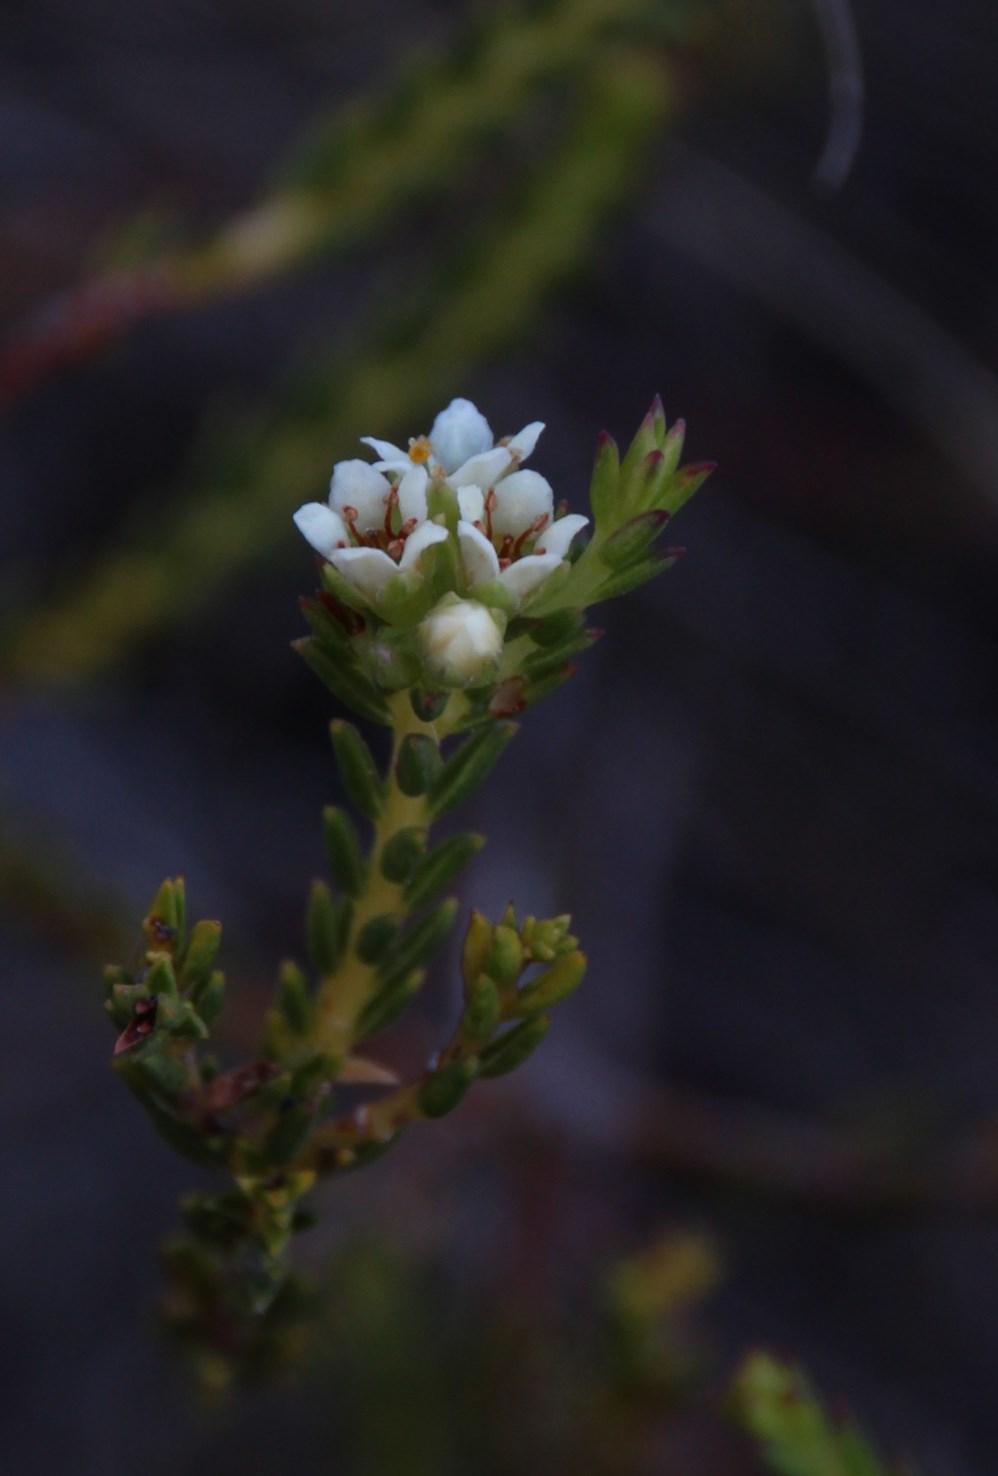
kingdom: Plantae
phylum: Tracheophyta
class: Magnoliopsida
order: Sapindales
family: Rutaceae
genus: Diosma
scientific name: Diosma oppositifolia
